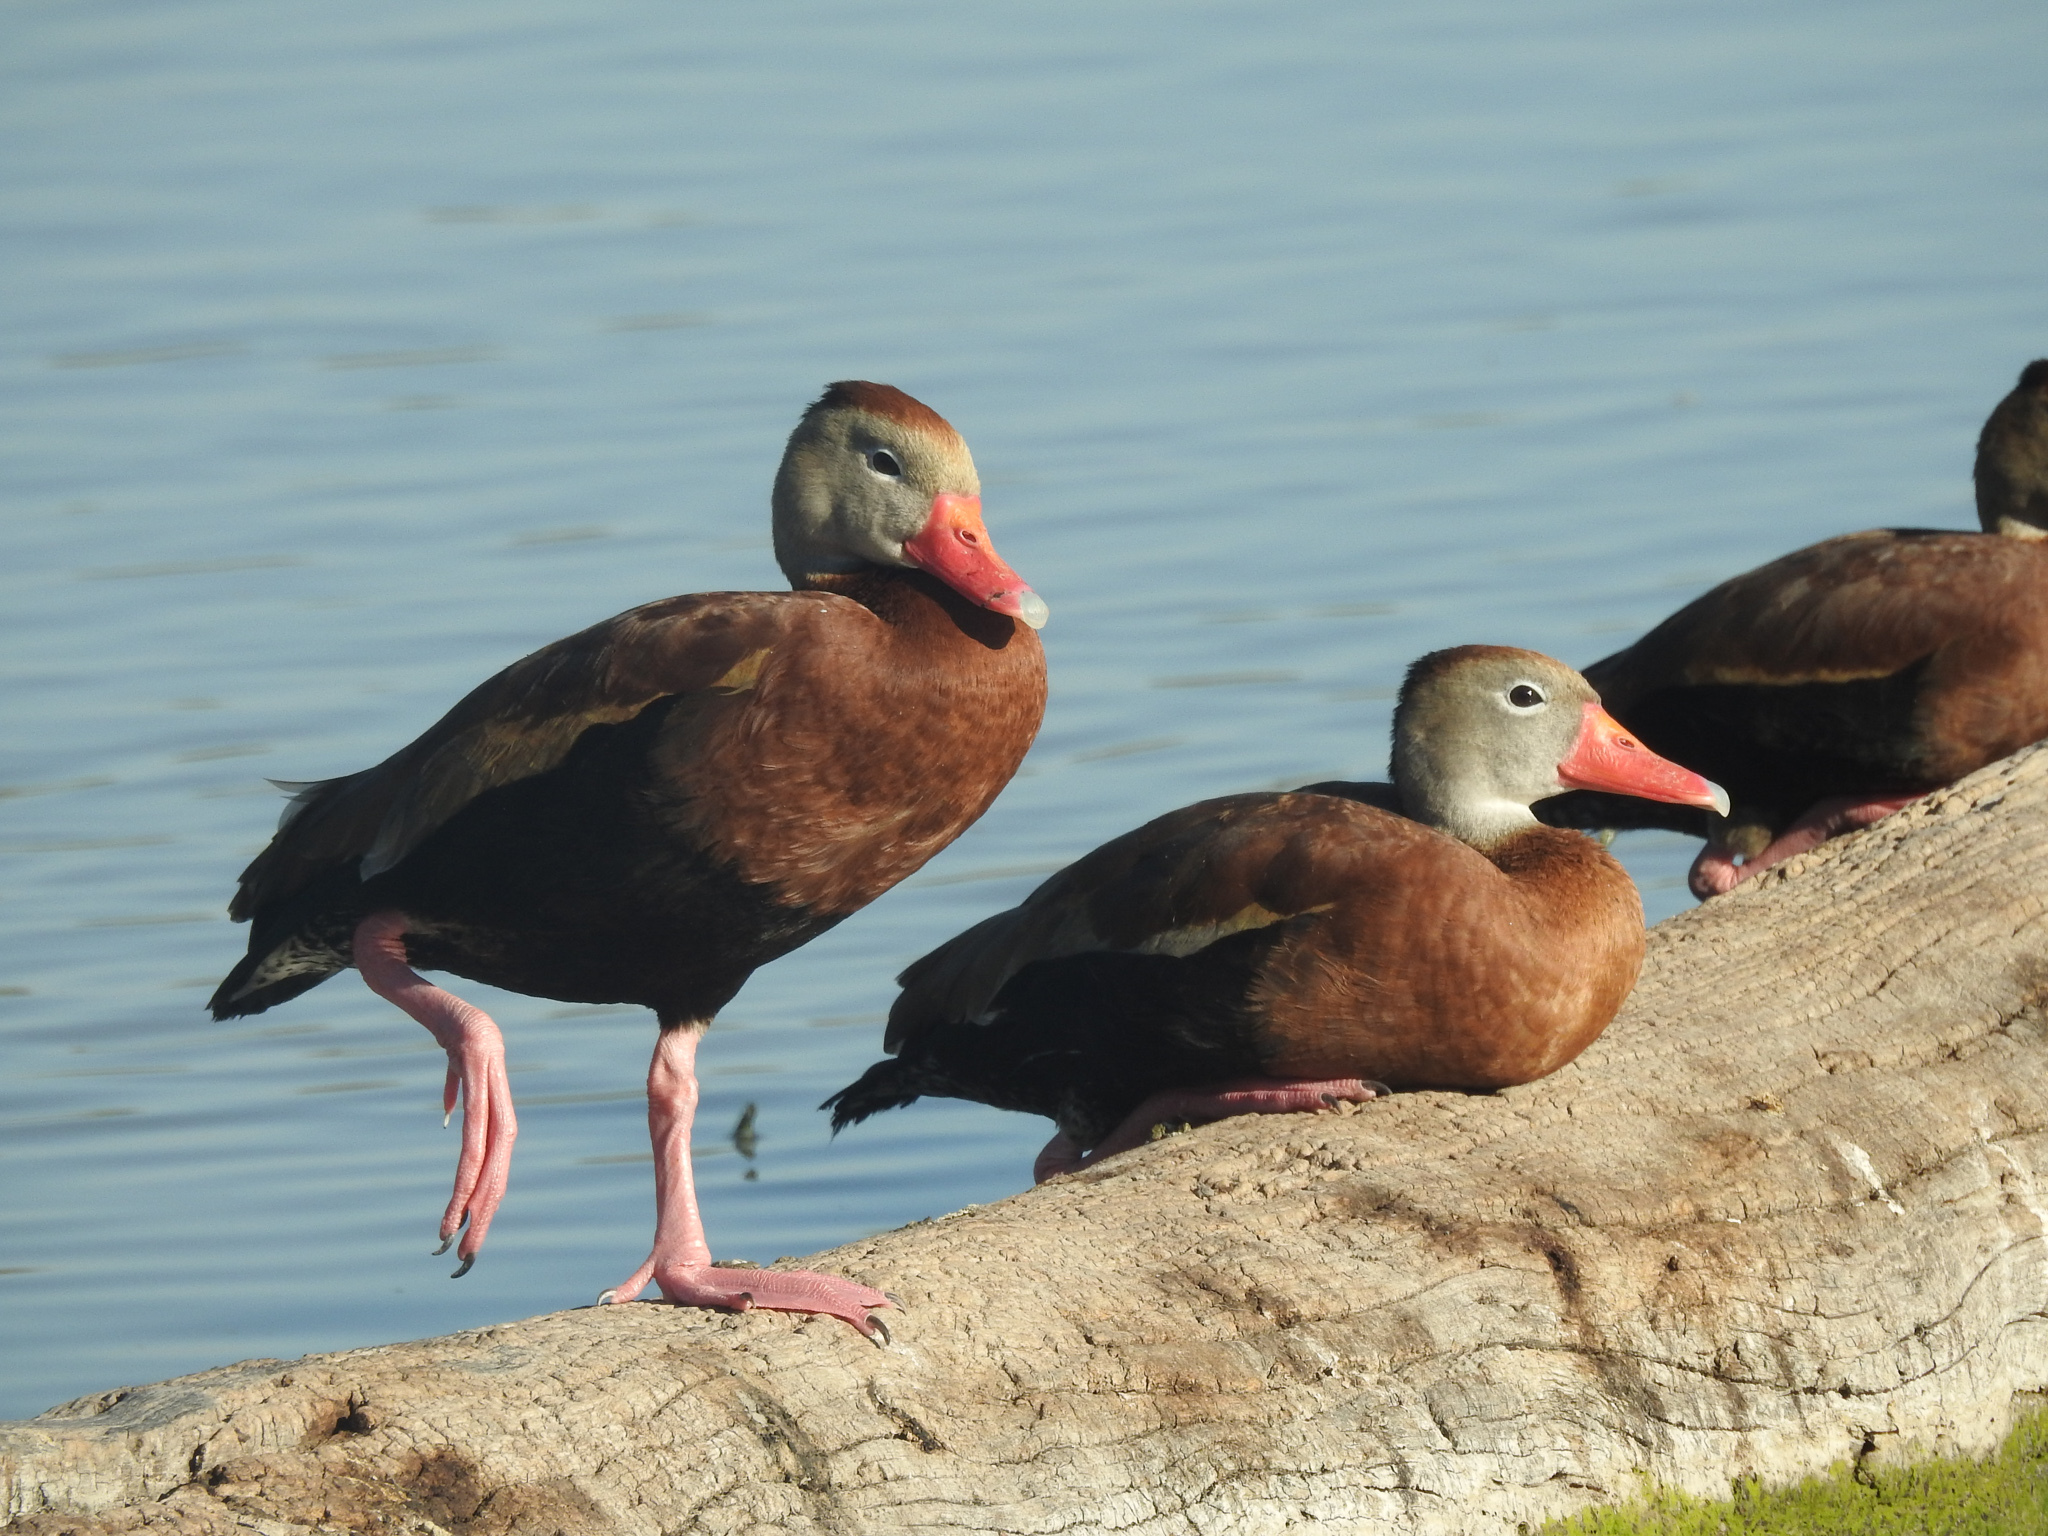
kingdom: Animalia
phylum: Chordata
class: Aves
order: Anseriformes
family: Anatidae
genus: Dendrocygna
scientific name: Dendrocygna autumnalis
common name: Black-bellied whistling duck
